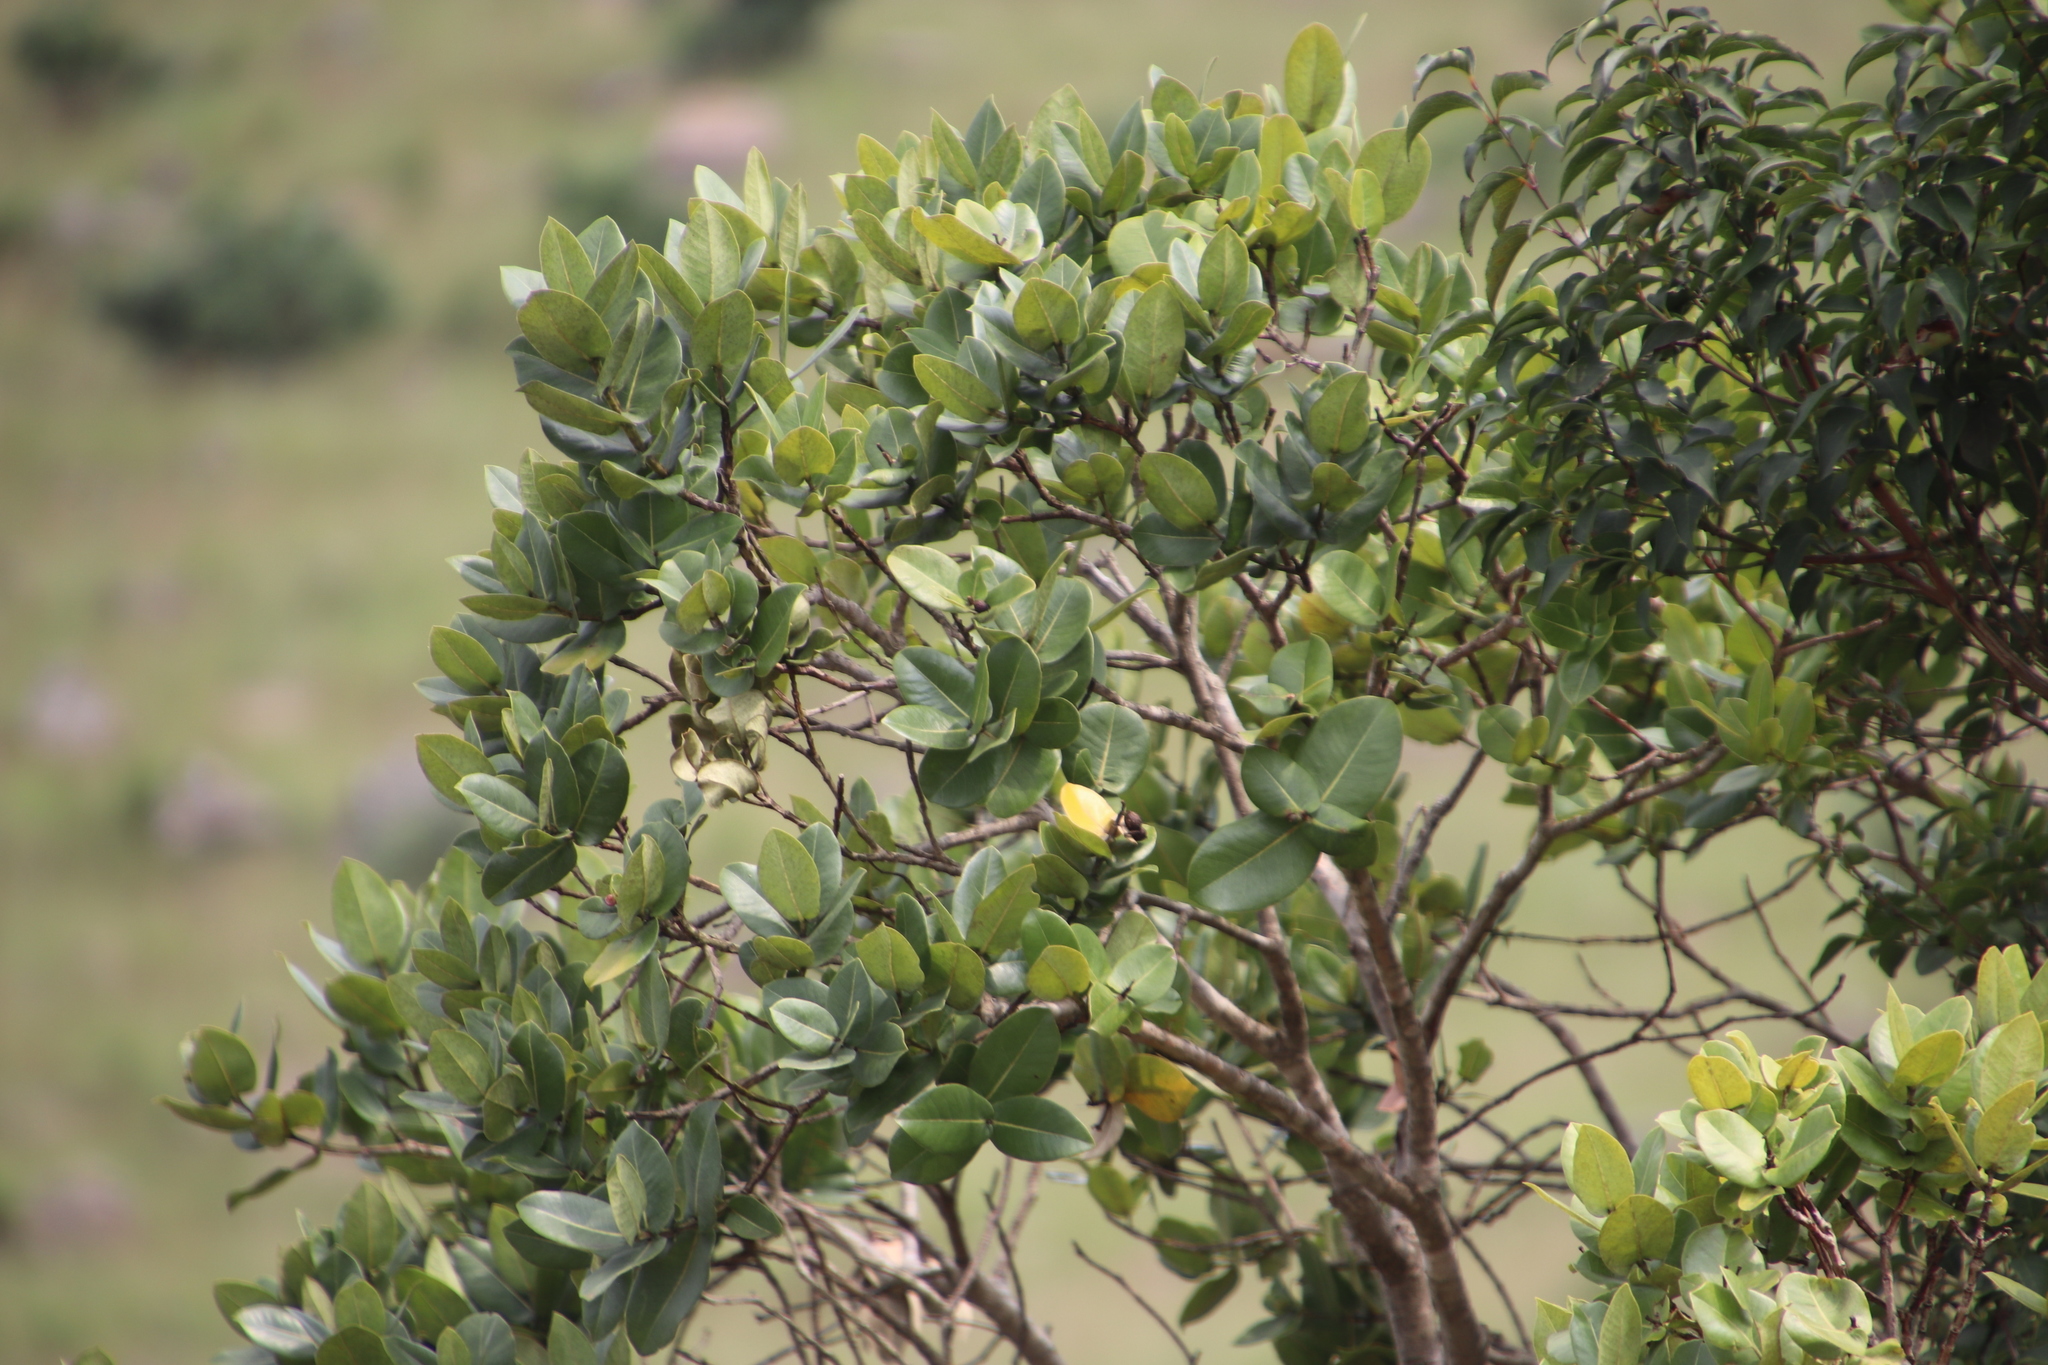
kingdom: Plantae
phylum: Tracheophyta
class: Magnoliopsida
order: Myrtales
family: Myrtaceae
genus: Syzygium
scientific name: Syzygium cordatum
